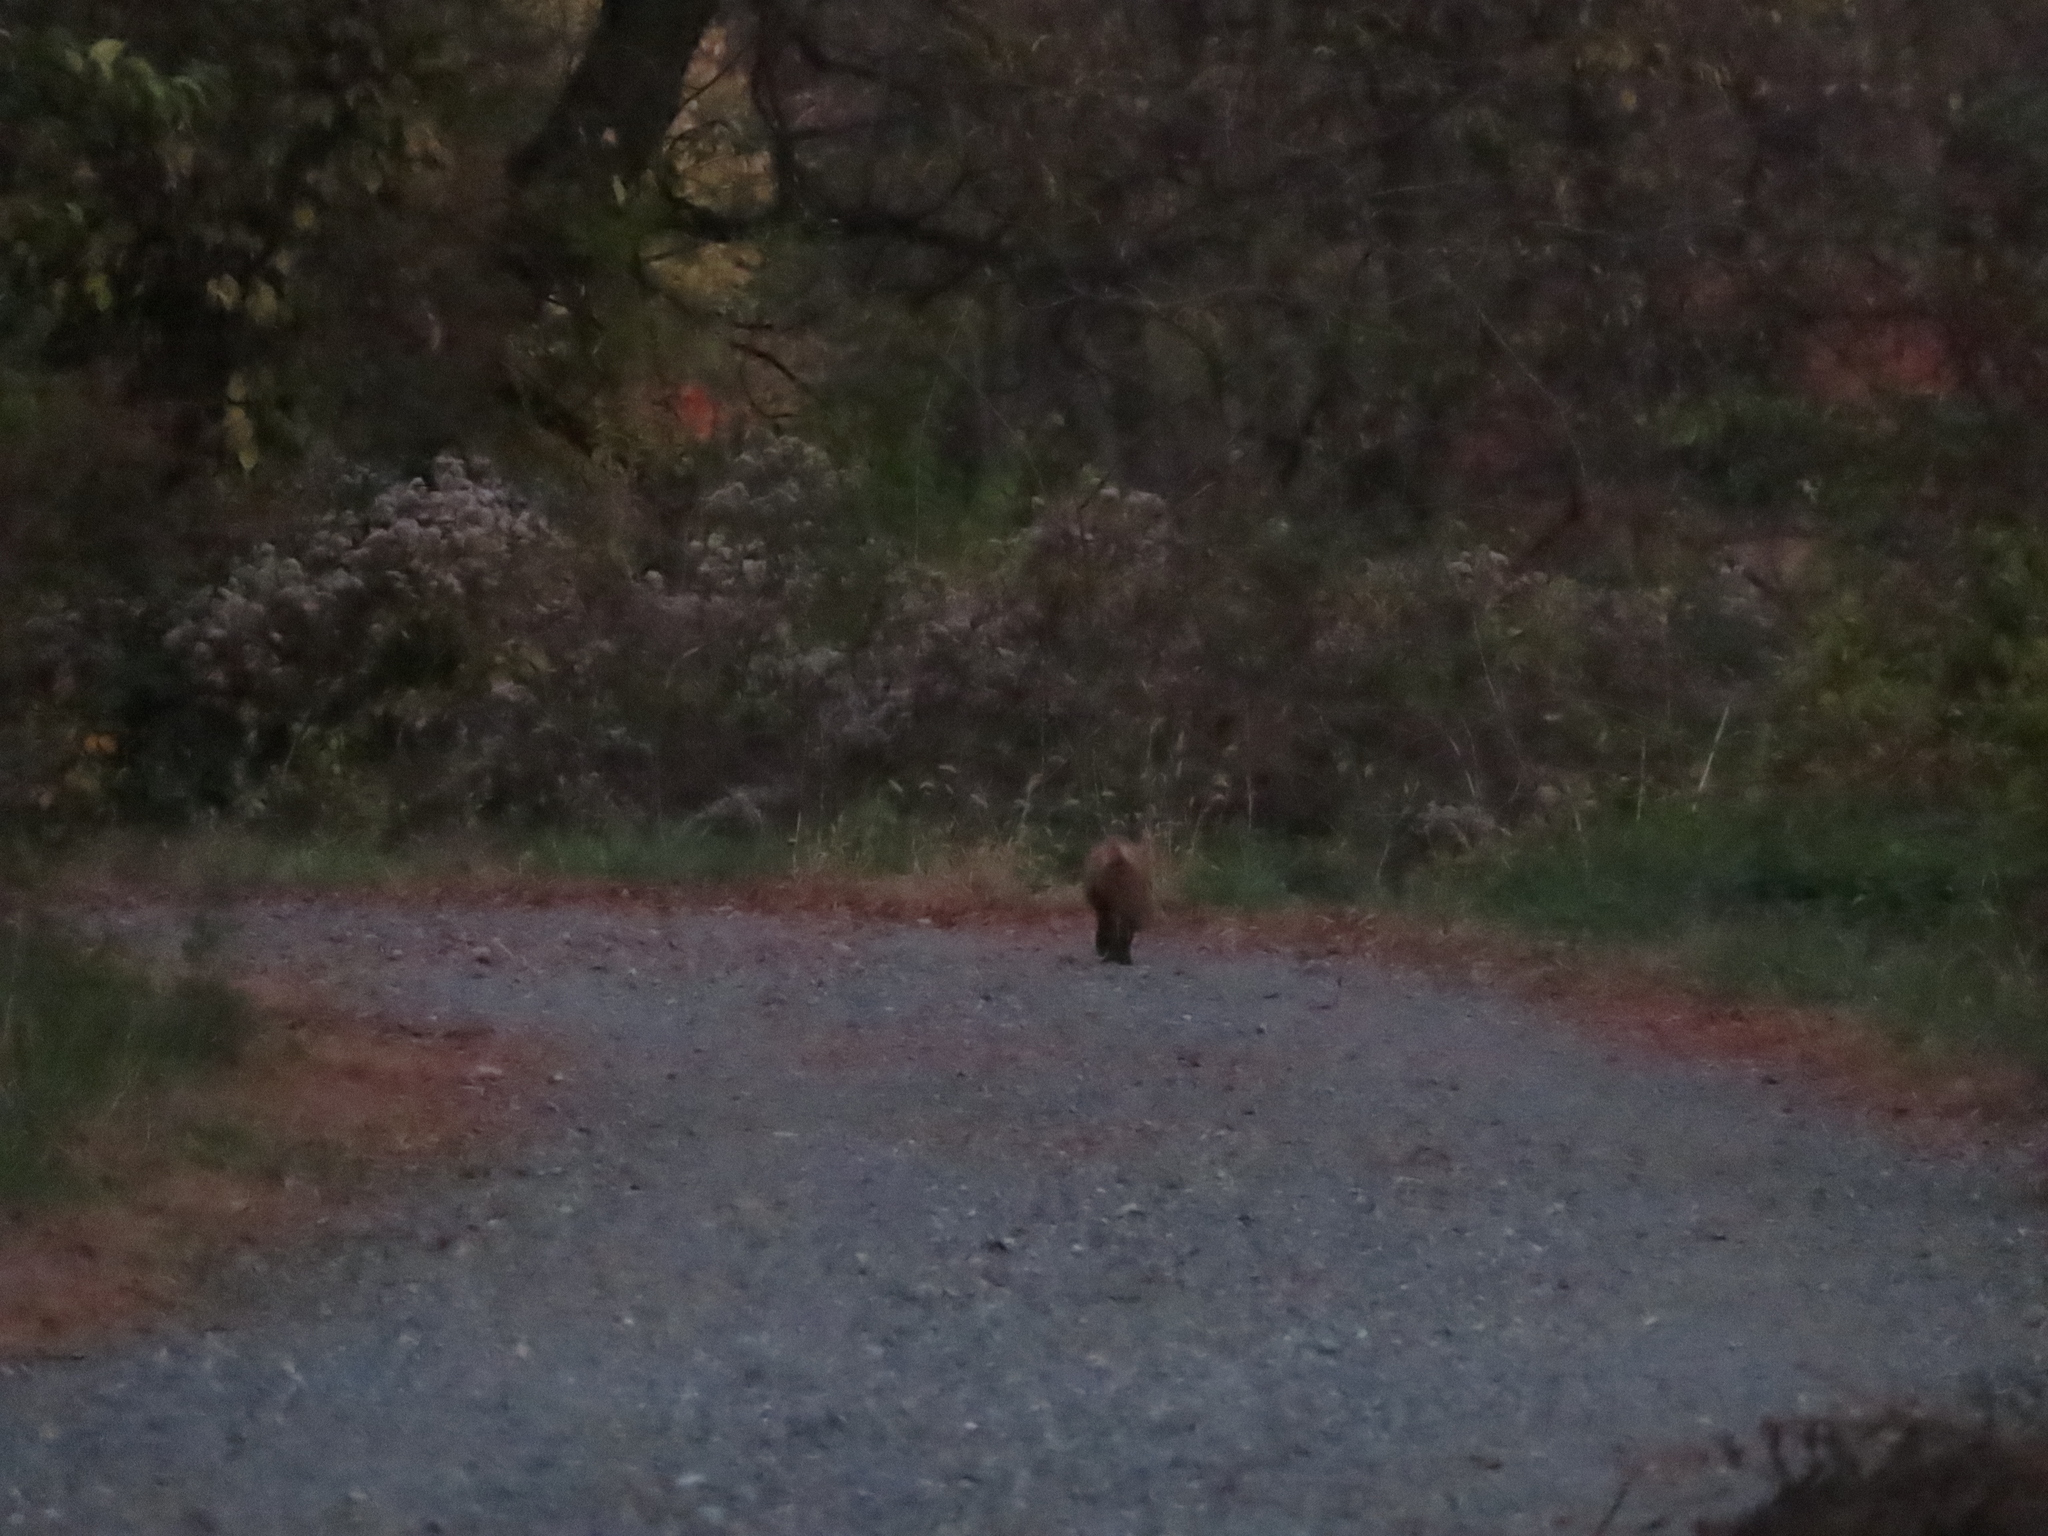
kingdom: Animalia
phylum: Chordata
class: Mammalia
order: Carnivora
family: Canidae
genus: Vulpes
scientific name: Vulpes vulpes
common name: Red fox
